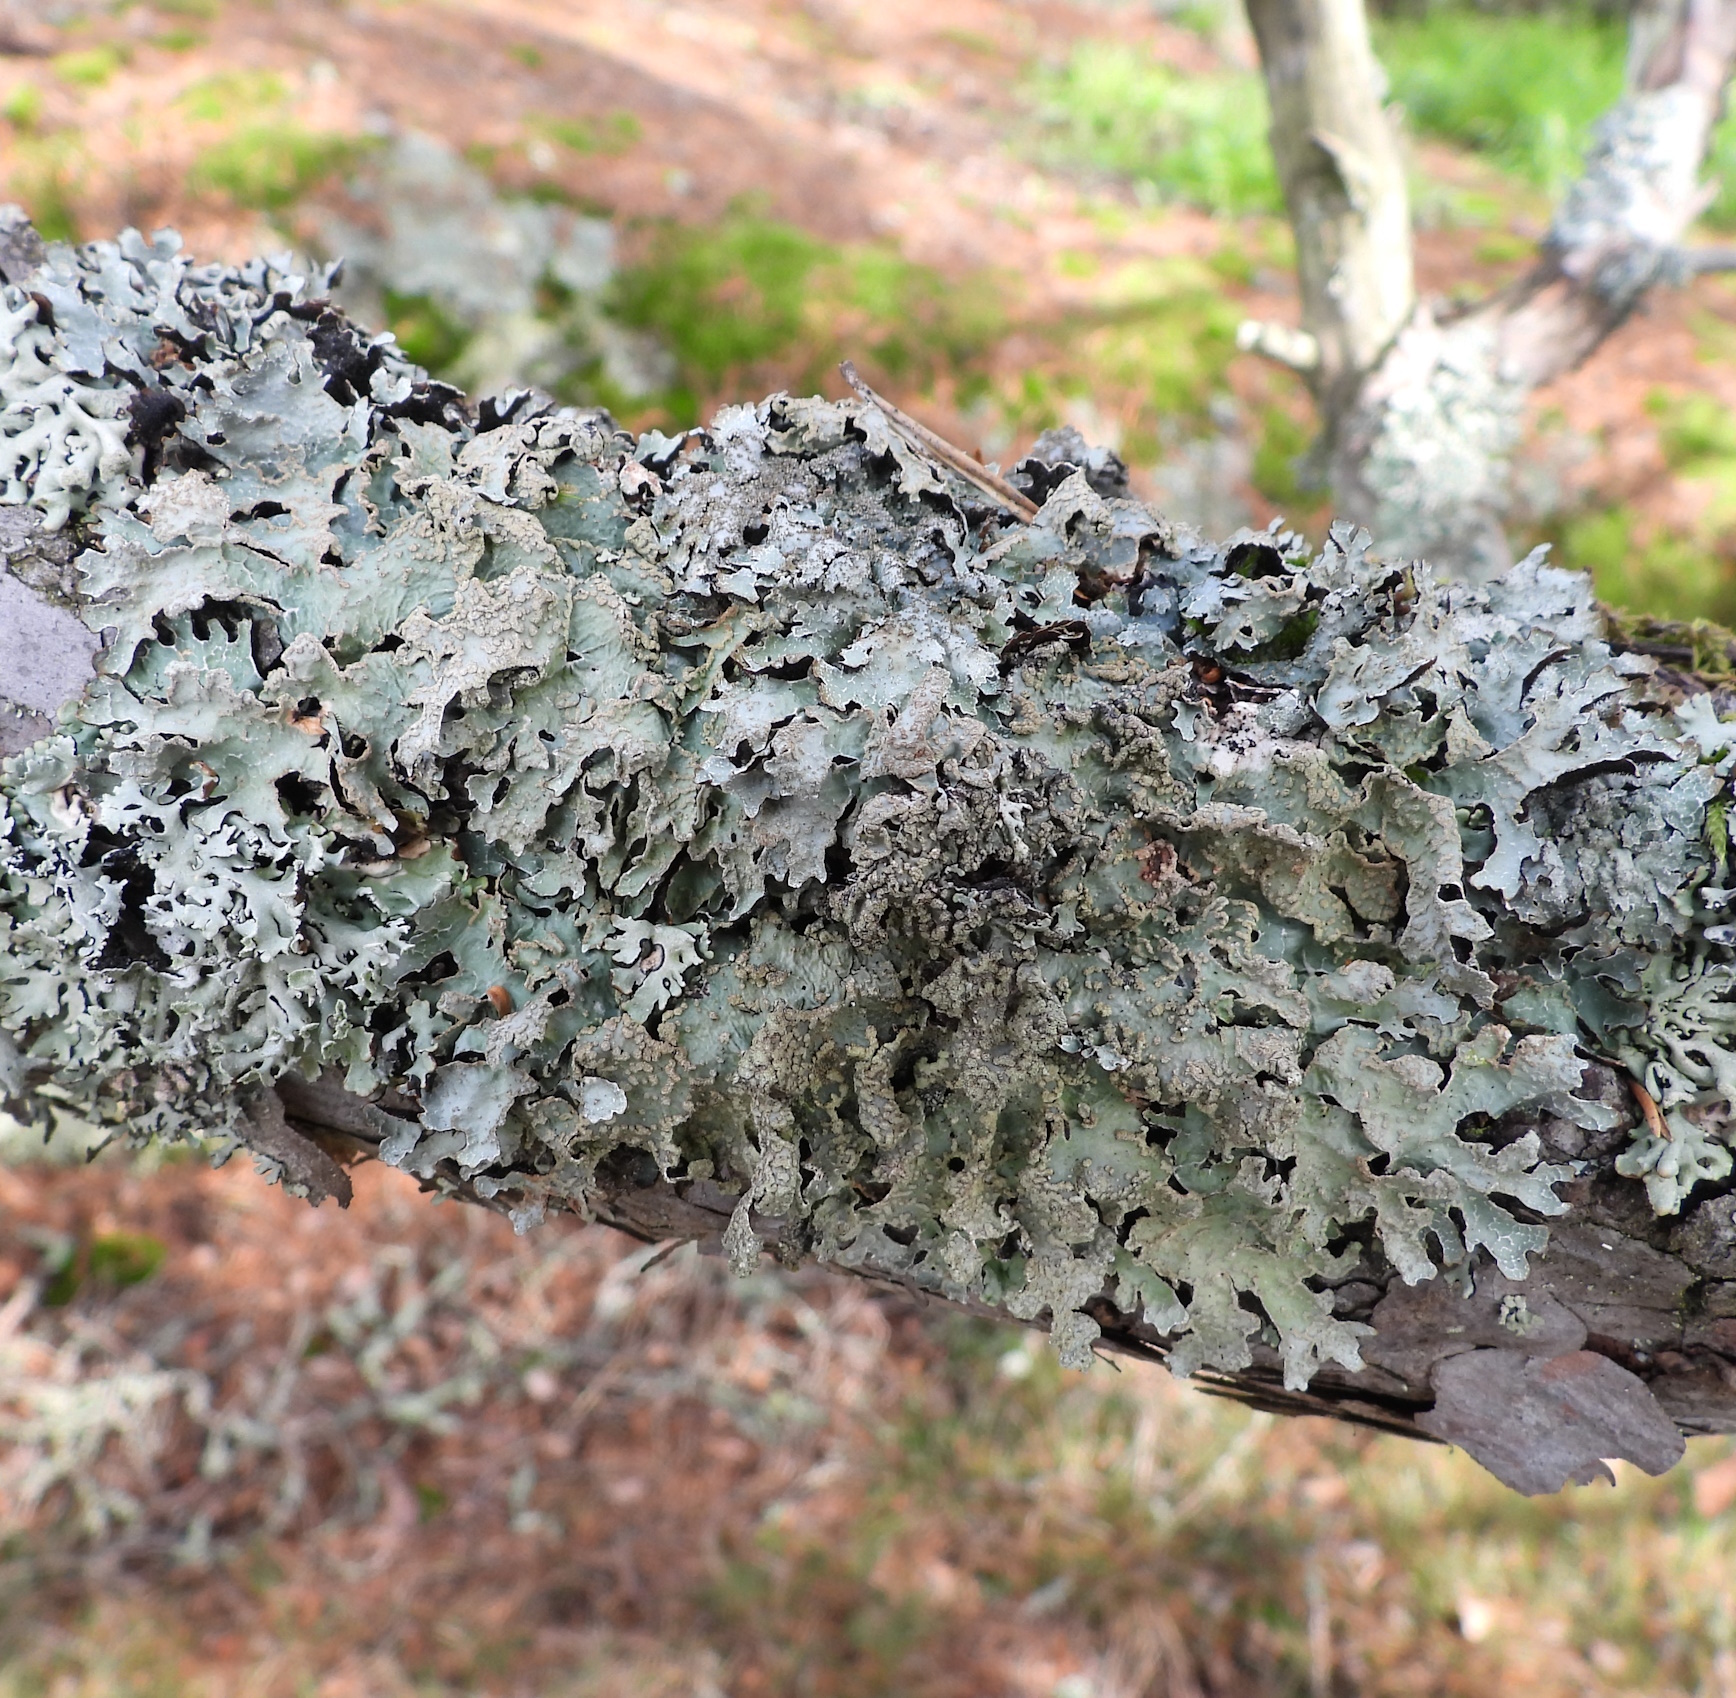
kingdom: Fungi
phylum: Ascomycota
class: Lecanoromycetes
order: Lecanorales
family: Parmeliaceae
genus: Parmelia
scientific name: Parmelia sulcata
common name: Netted shield lichen
